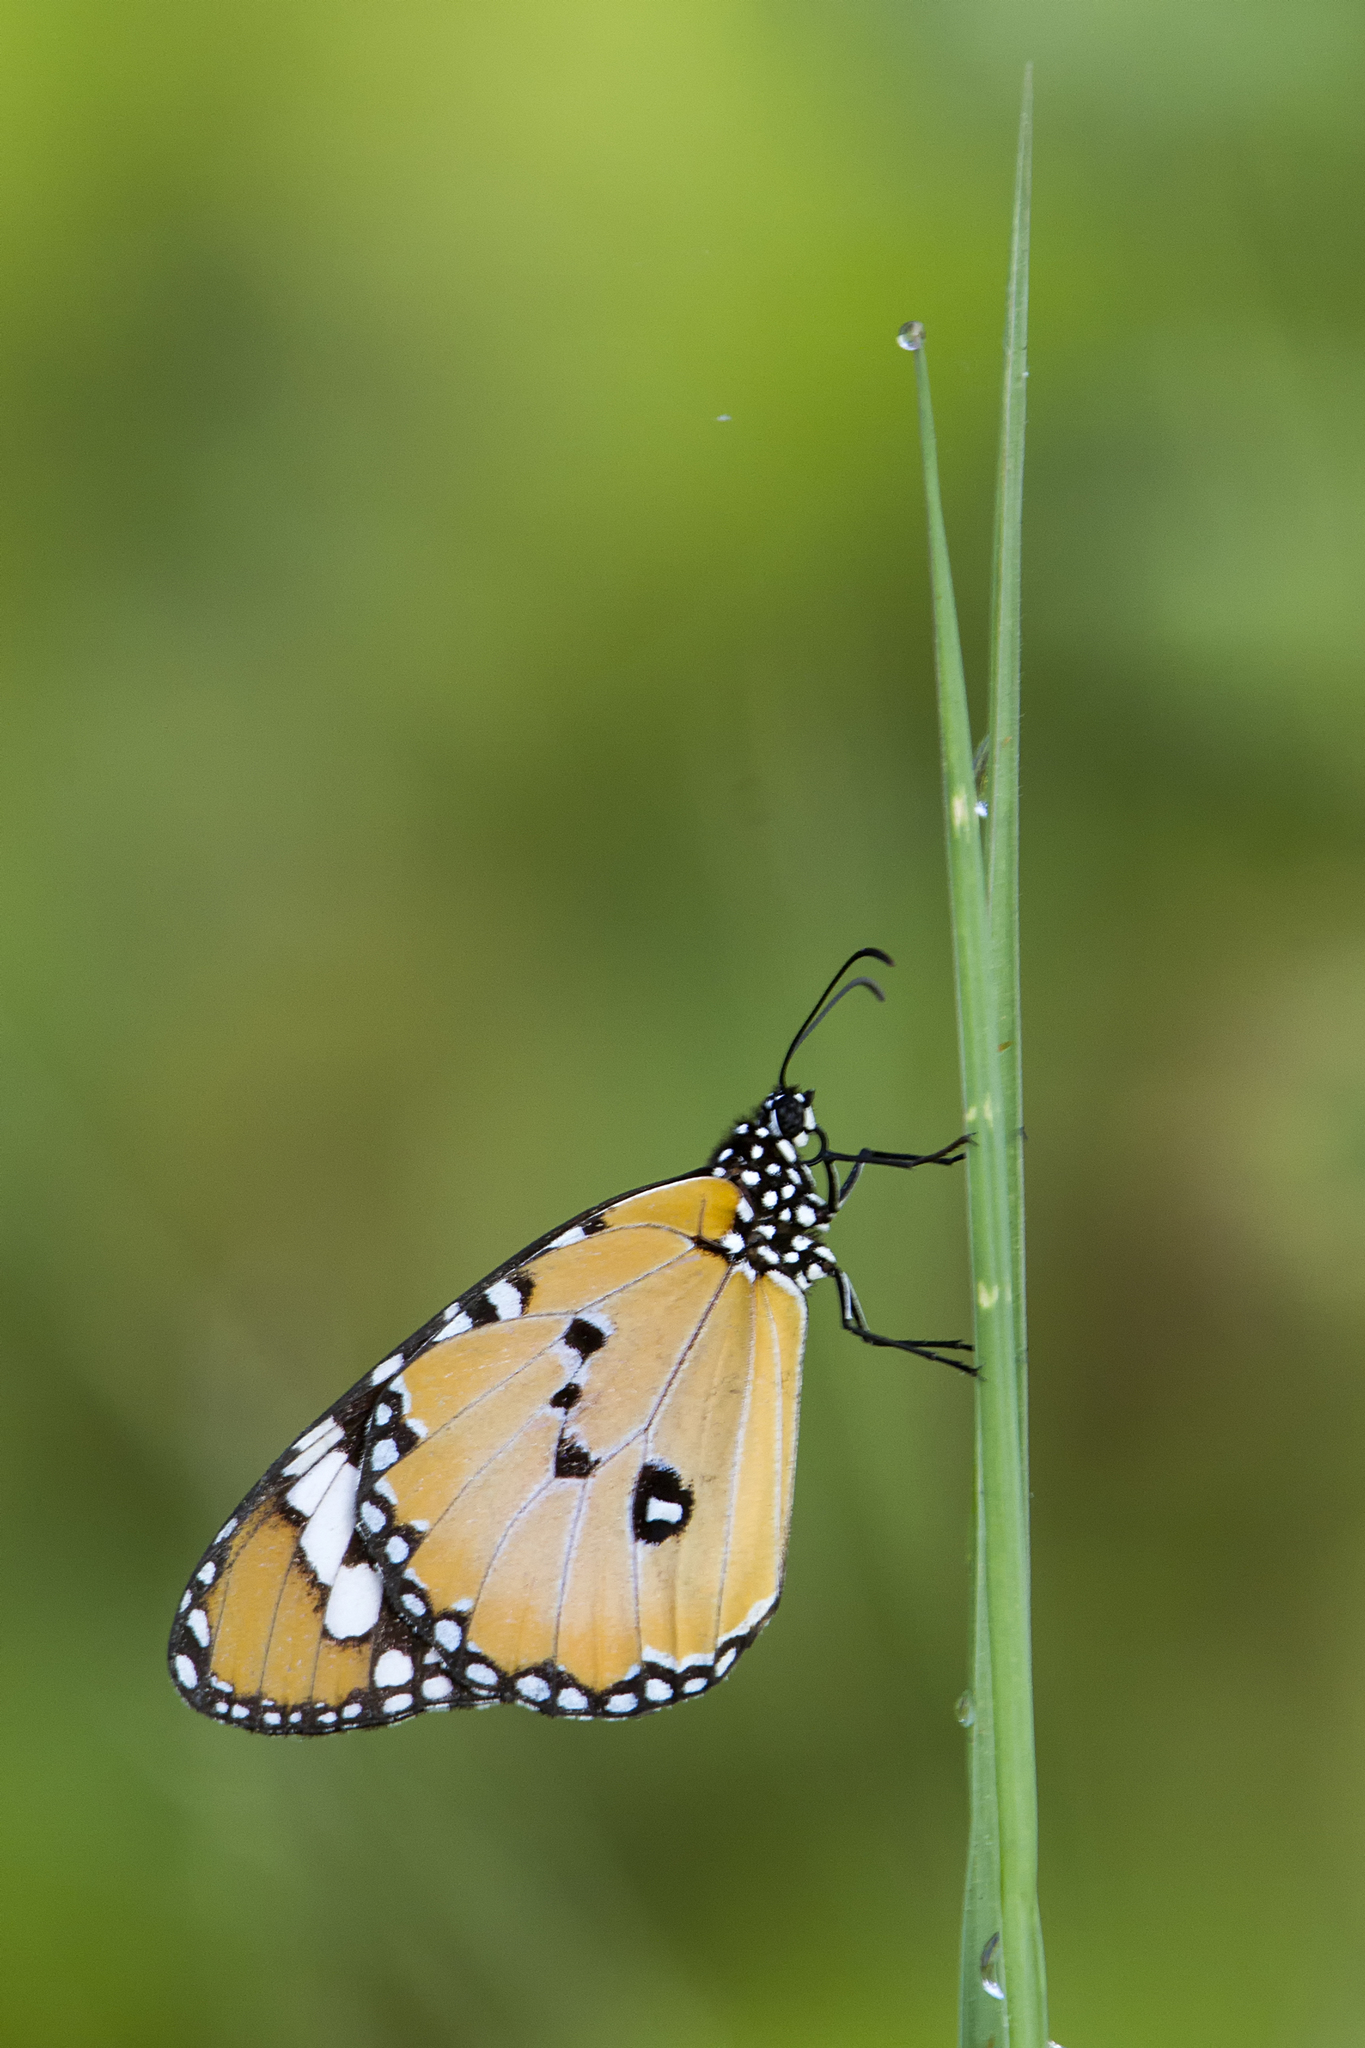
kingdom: Animalia
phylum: Arthropoda
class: Insecta
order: Lepidoptera
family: Nymphalidae
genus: Danaus
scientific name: Danaus chrysippus
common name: Plain tiger
